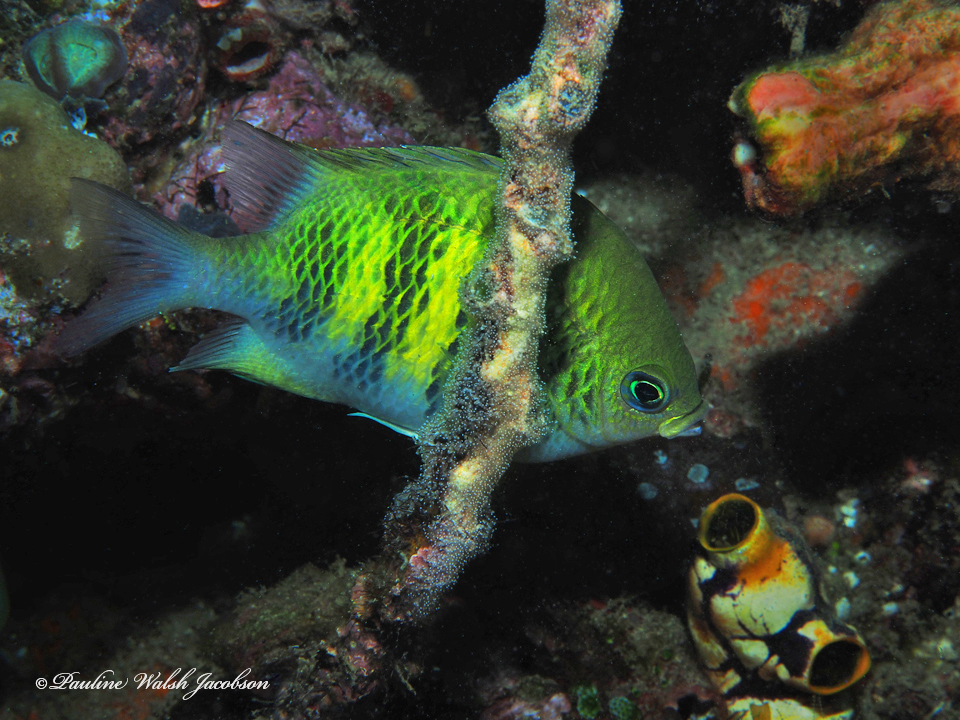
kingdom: Animalia
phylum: Chordata
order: Perciformes
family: Pomacentridae
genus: Amblyglyphidodon
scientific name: Amblyglyphidodon curacao
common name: Staghorn damsel
